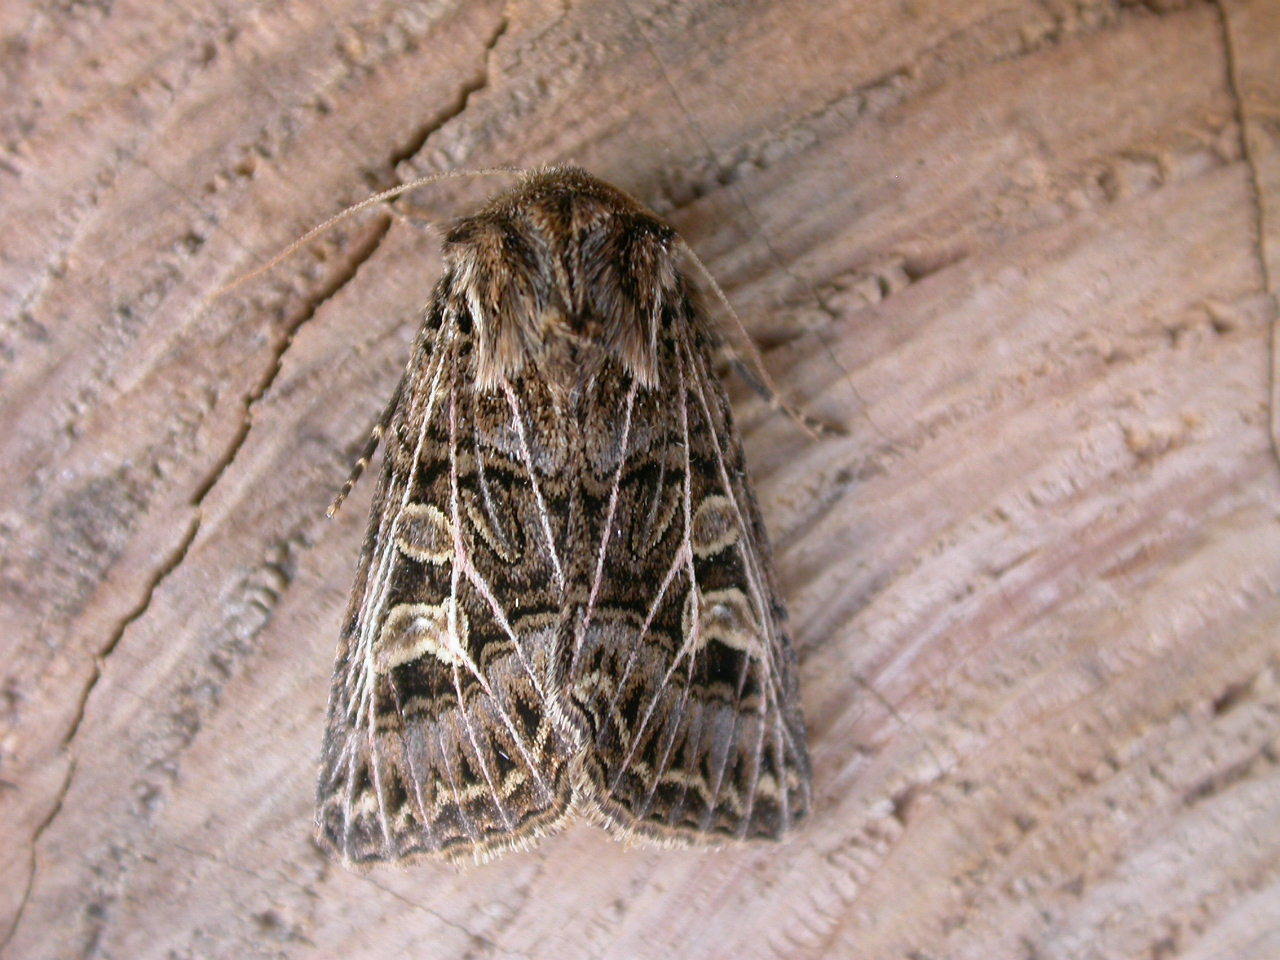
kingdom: Animalia
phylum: Arthropoda
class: Insecta
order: Lepidoptera
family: Noctuidae
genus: Tholera
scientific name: Tholera decimalis
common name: Feathered gothic
